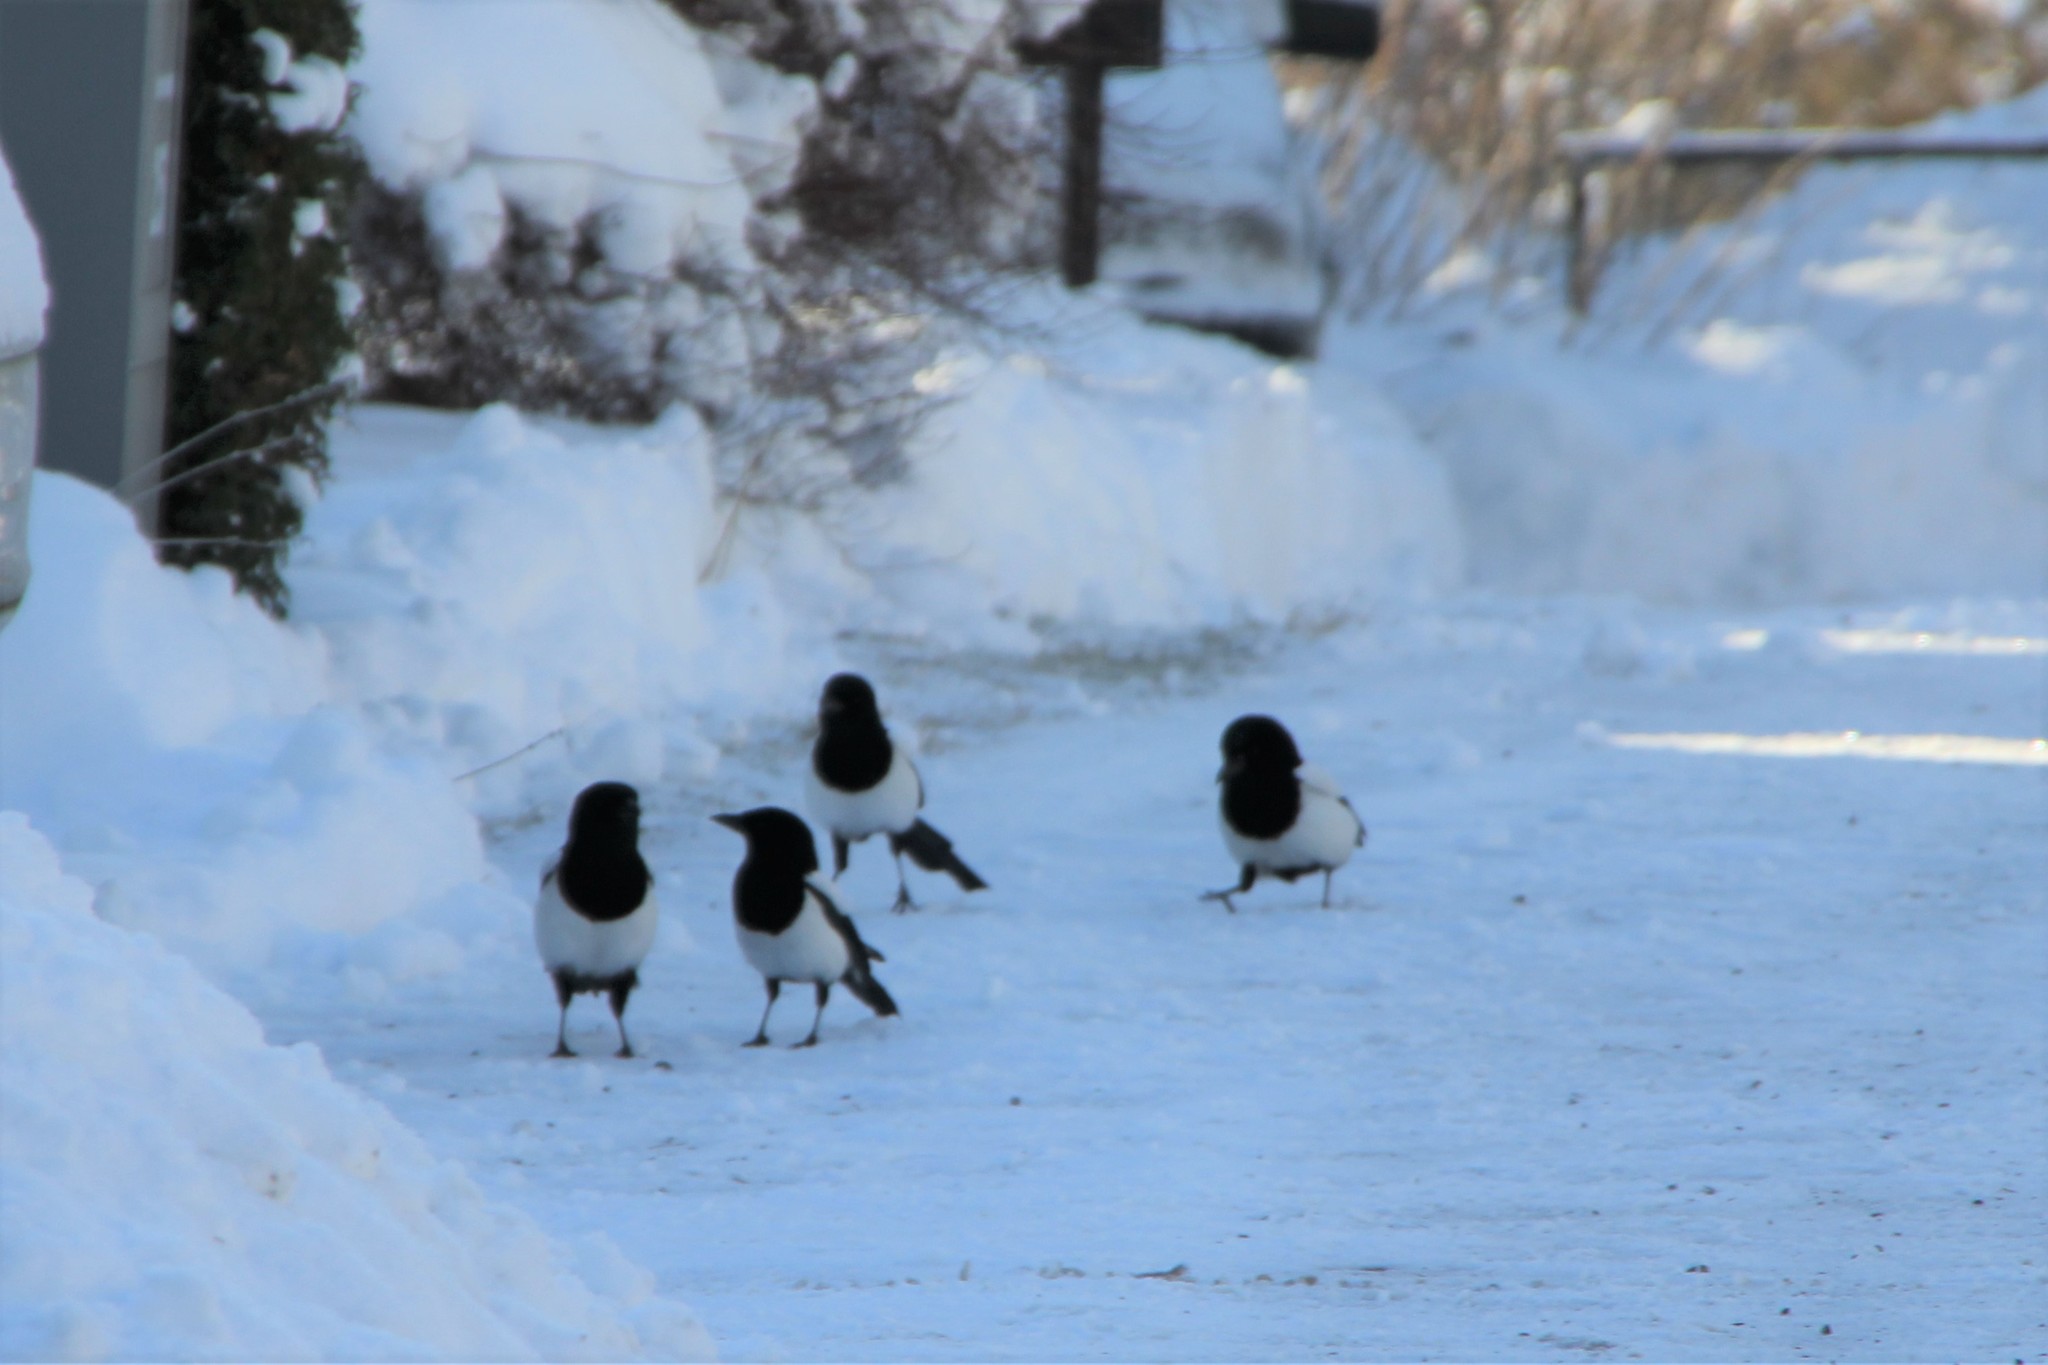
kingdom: Animalia
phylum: Chordata
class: Aves
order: Passeriformes
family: Corvidae
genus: Pica
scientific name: Pica pica
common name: Eurasian magpie
